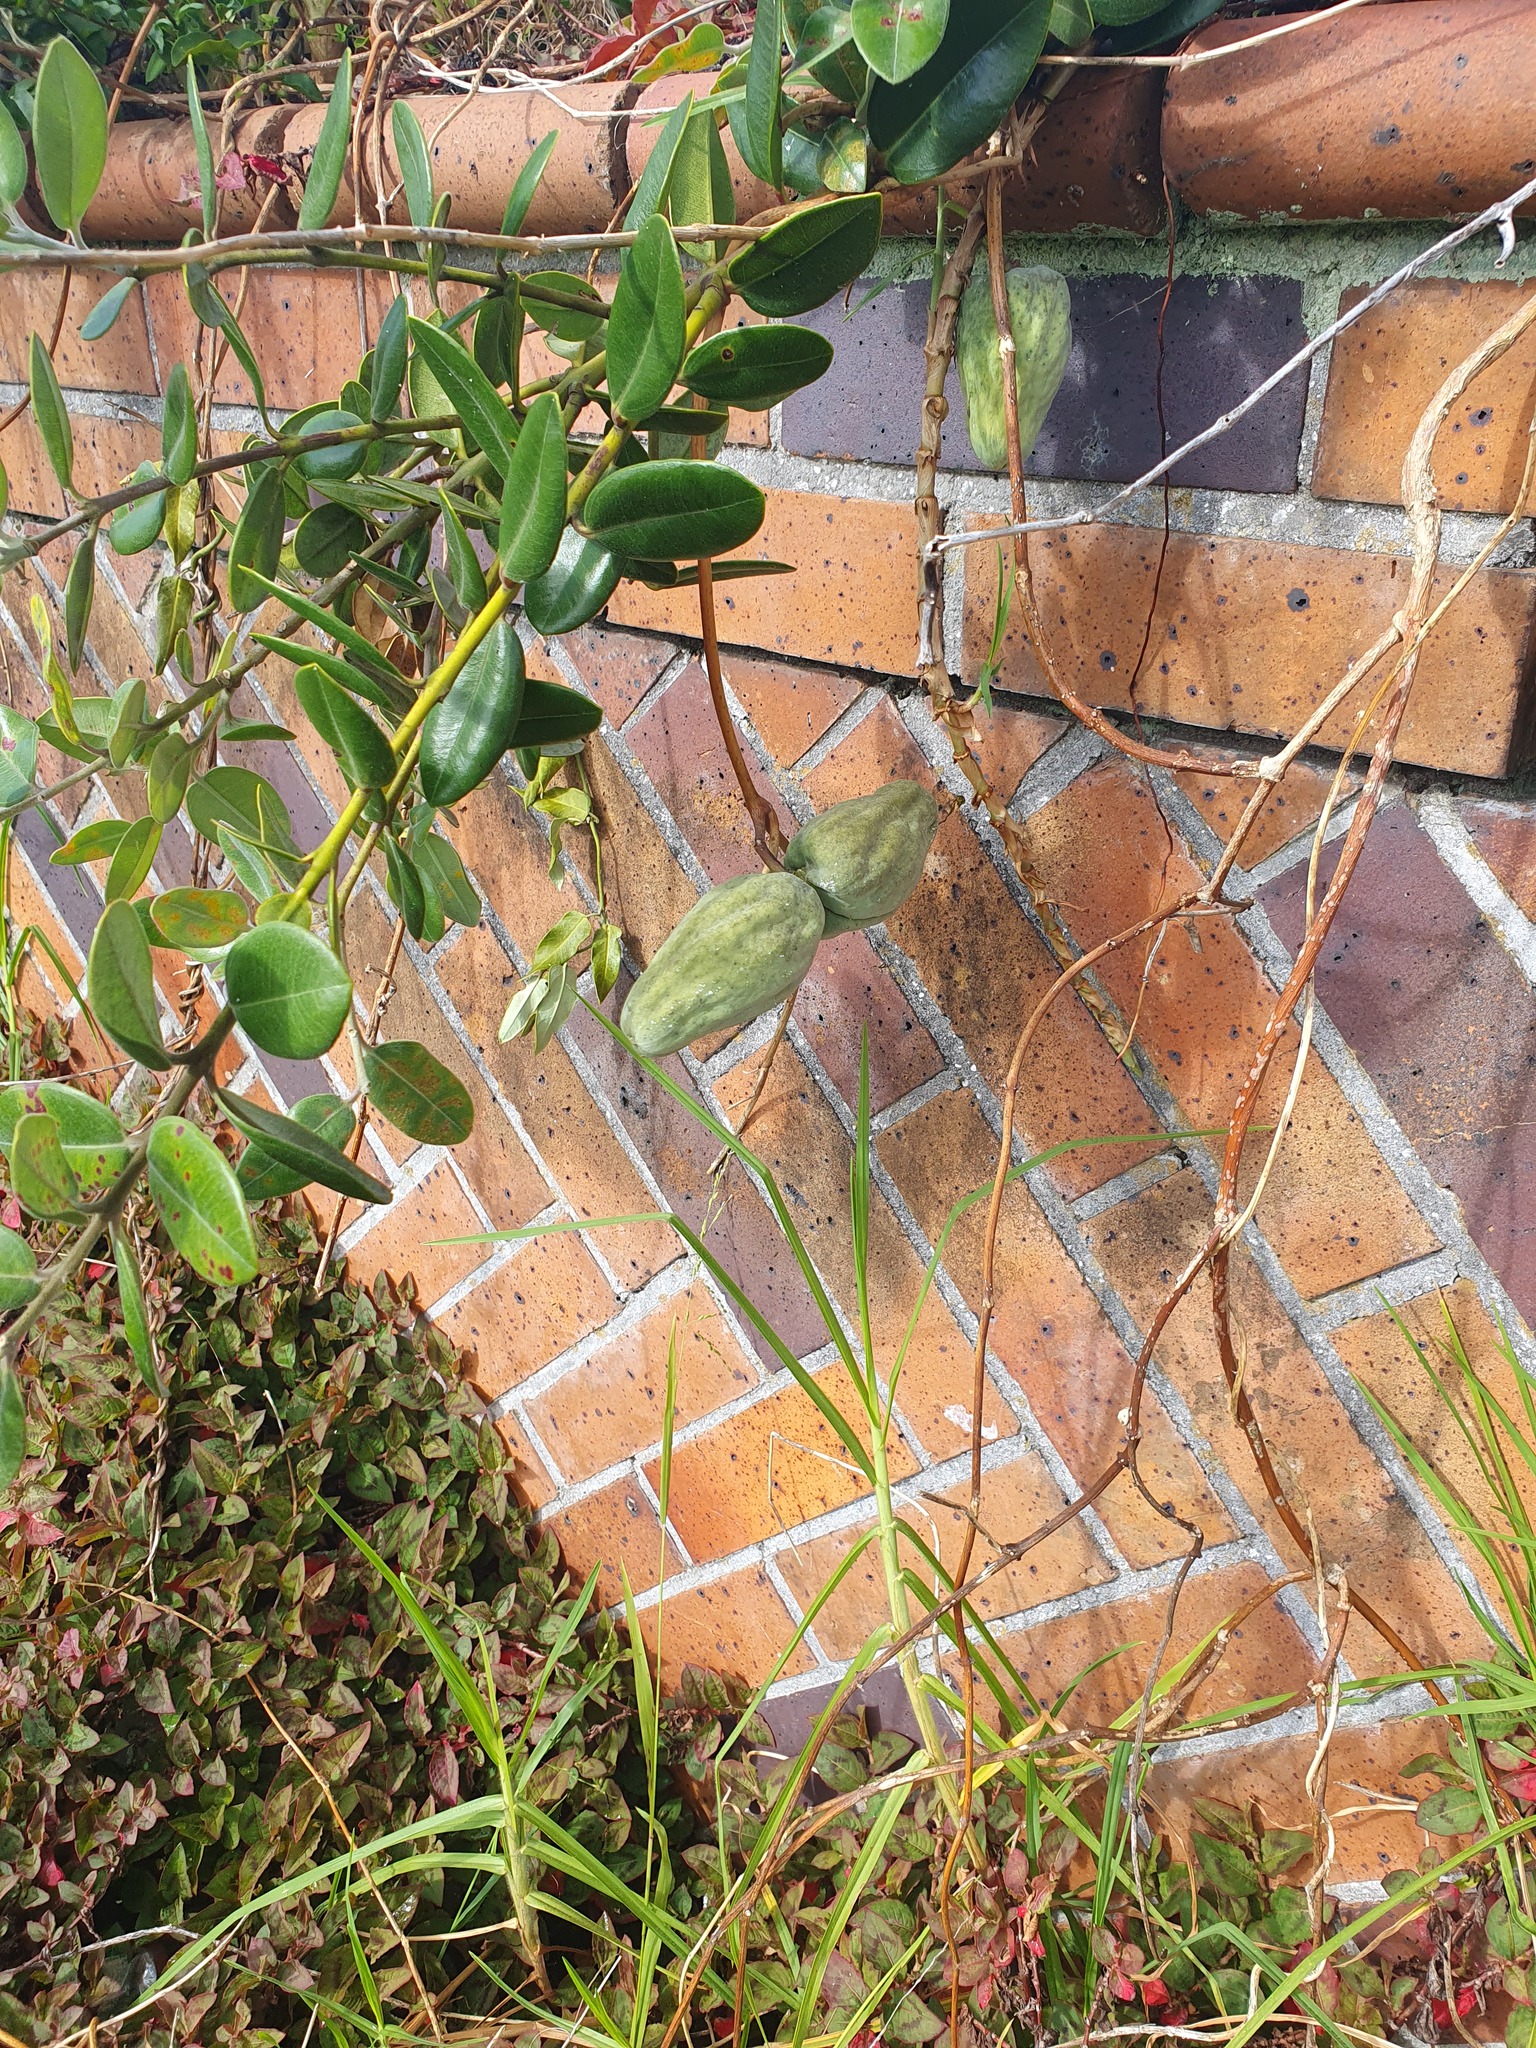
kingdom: Plantae
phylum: Tracheophyta
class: Magnoliopsida
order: Gentianales
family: Apocynaceae
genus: Araujia
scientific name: Araujia sericifera
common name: White bladderflower
